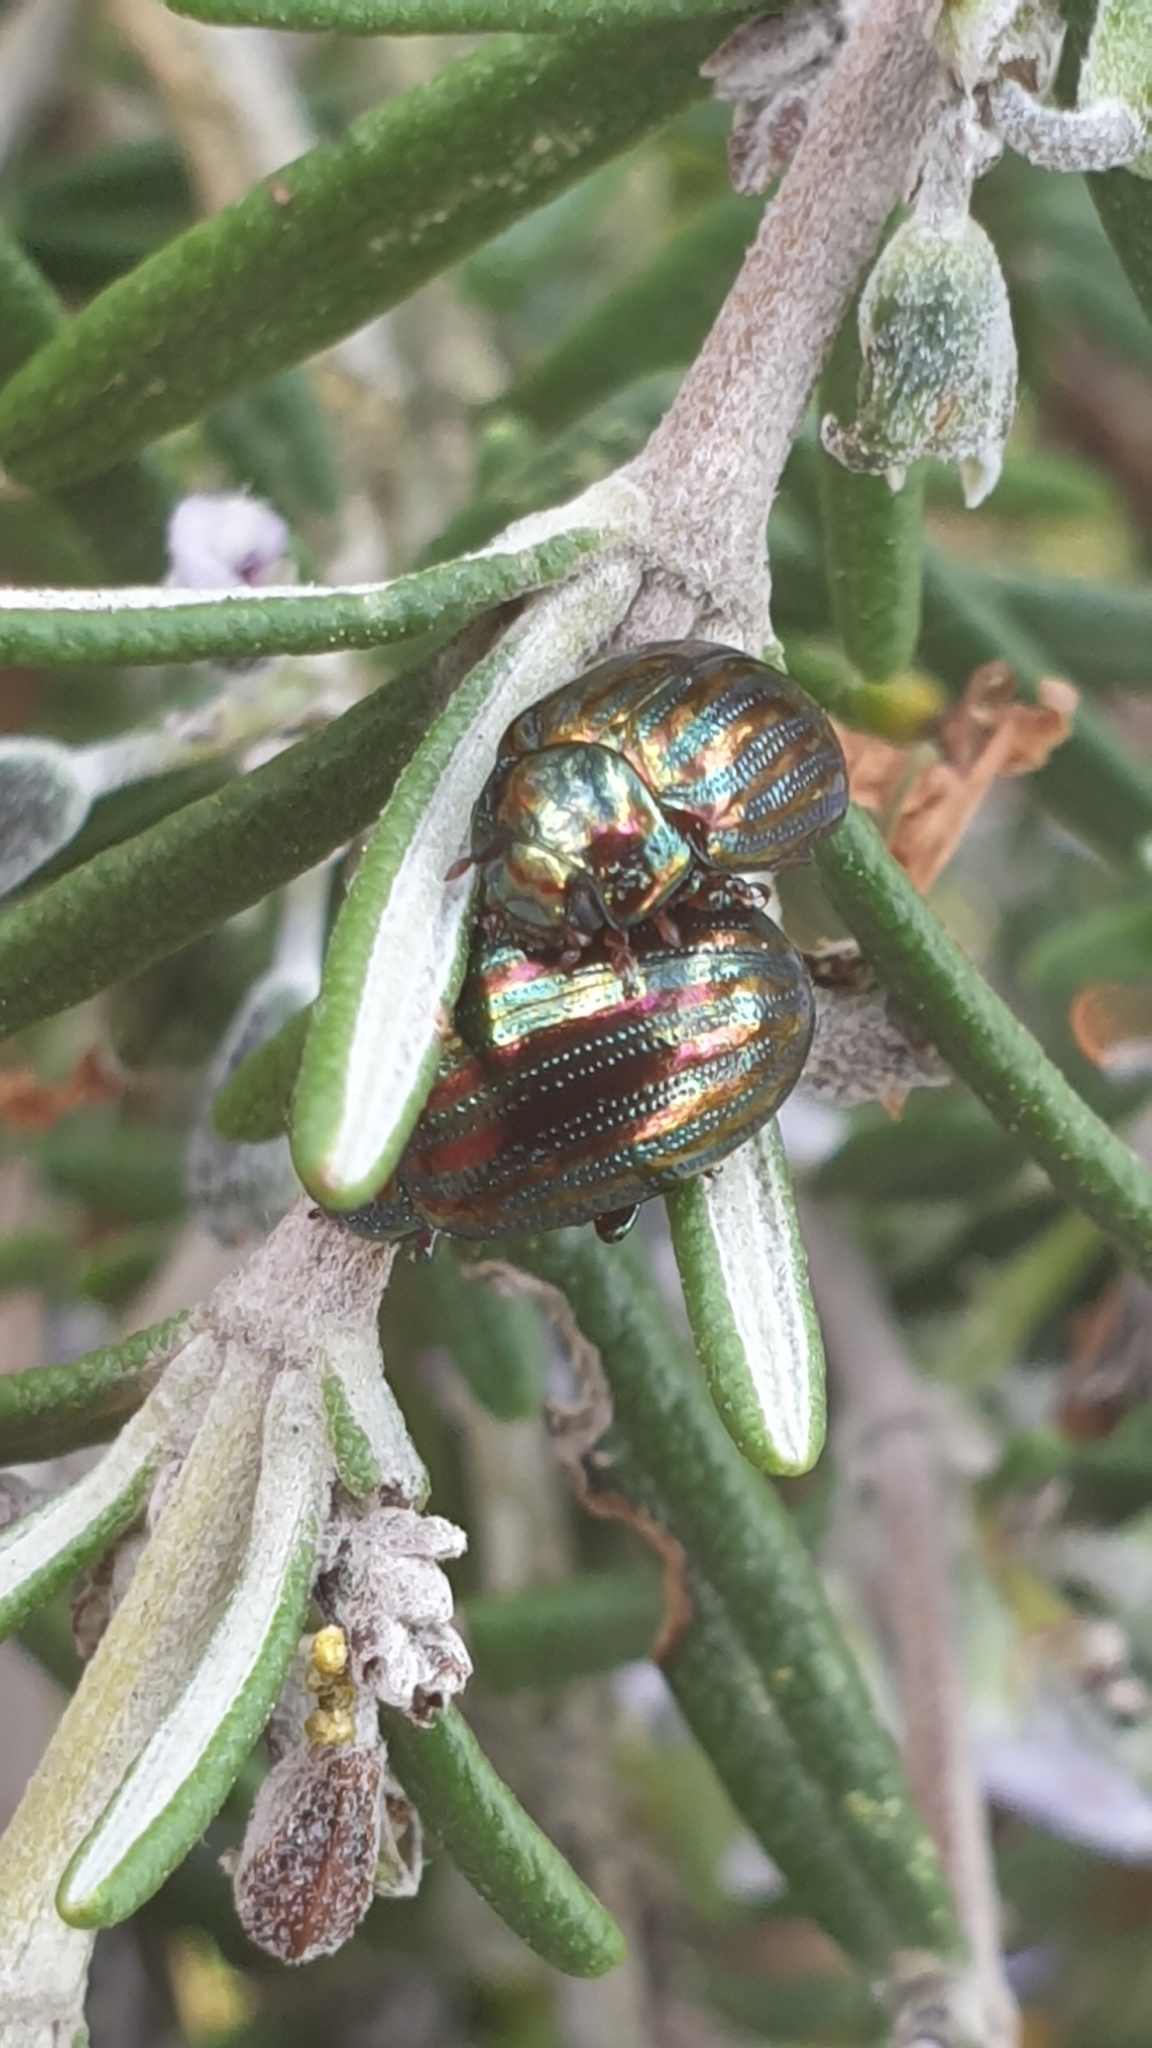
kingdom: Animalia
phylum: Arthropoda
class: Insecta
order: Coleoptera
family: Chrysomelidae
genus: Chrysolina
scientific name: Chrysolina americana
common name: Rosemary beetle
